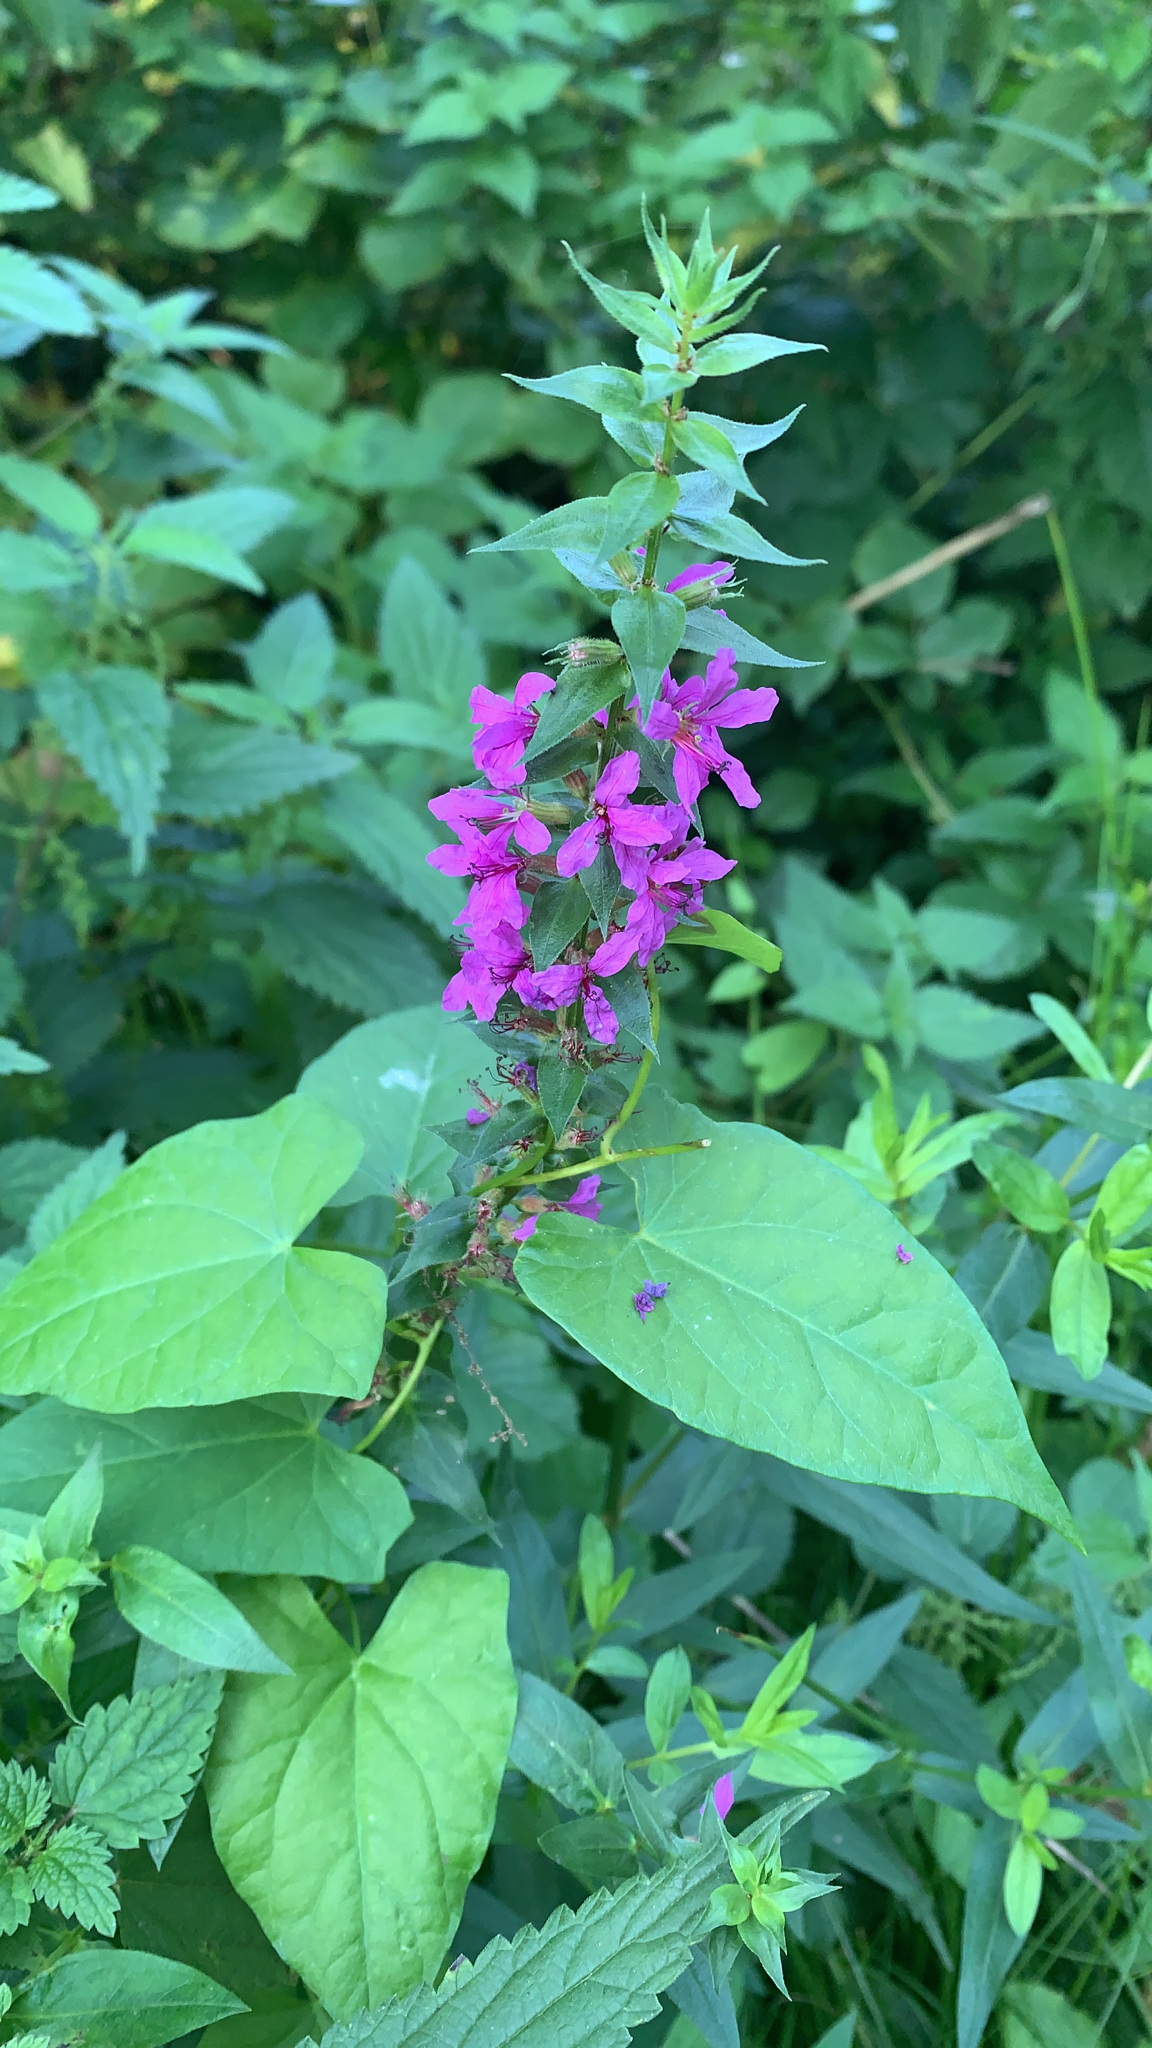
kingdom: Plantae
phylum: Tracheophyta
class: Magnoliopsida
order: Myrtales
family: Lythraceae
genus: Lythrum
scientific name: Lythrum salicaria
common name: Purple loosestrife
